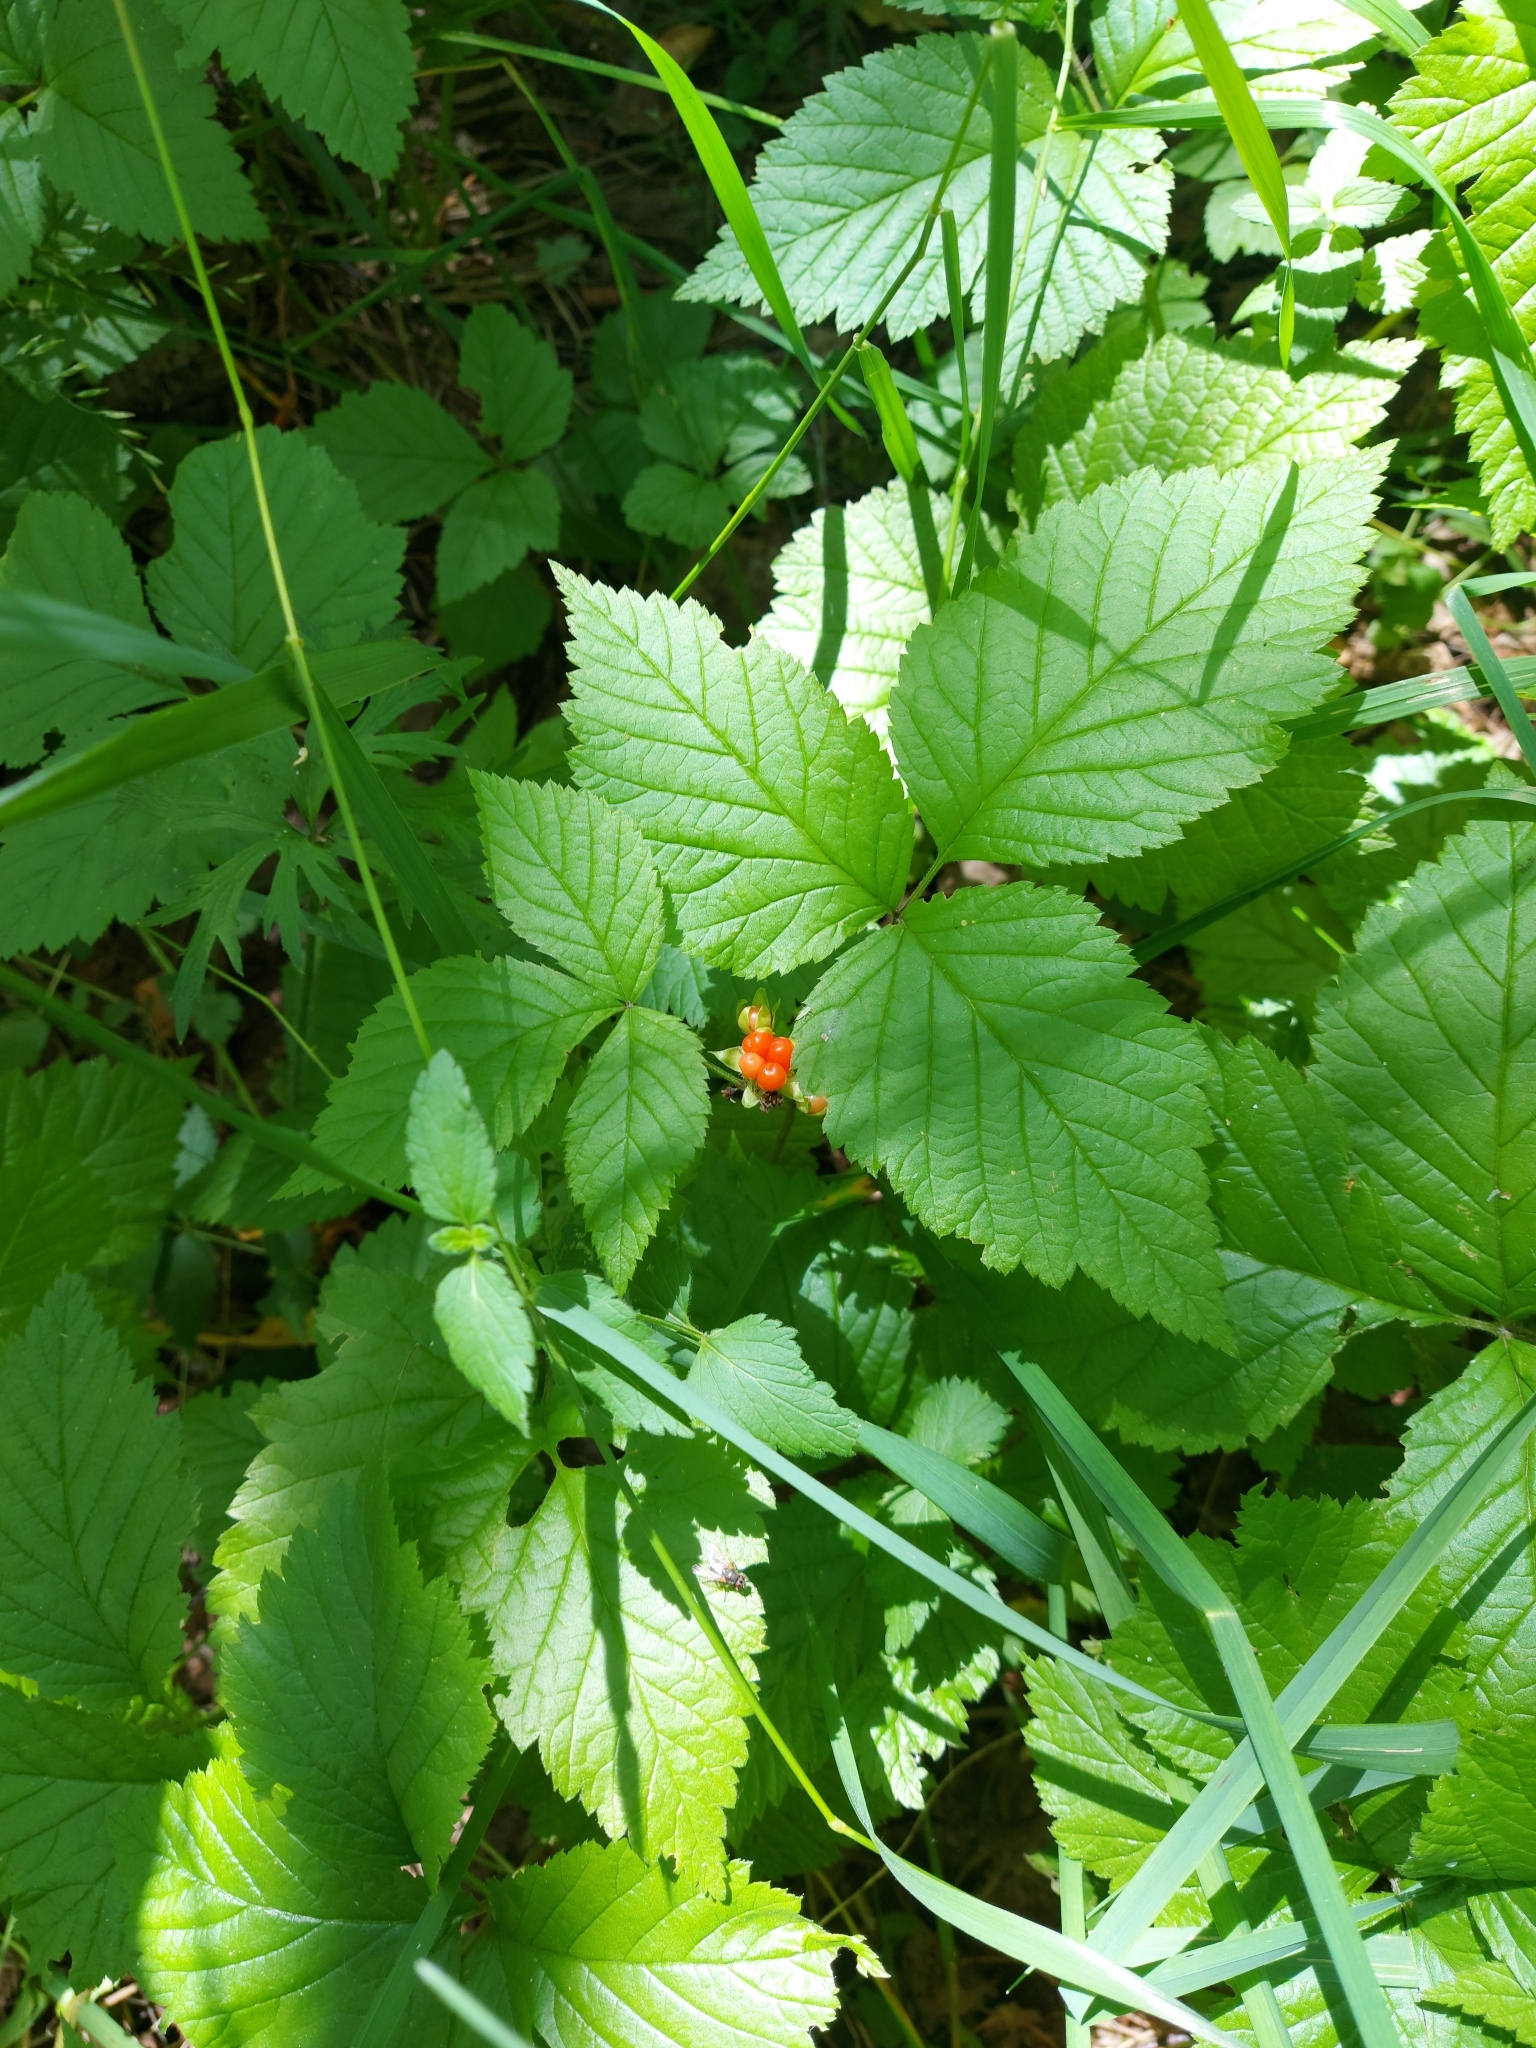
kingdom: Plantae
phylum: Tracheophyta
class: Magnoliopsida
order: Rosales
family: Rosaceae
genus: Rubus
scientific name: Rubus saxatilis
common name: Stone bramble
